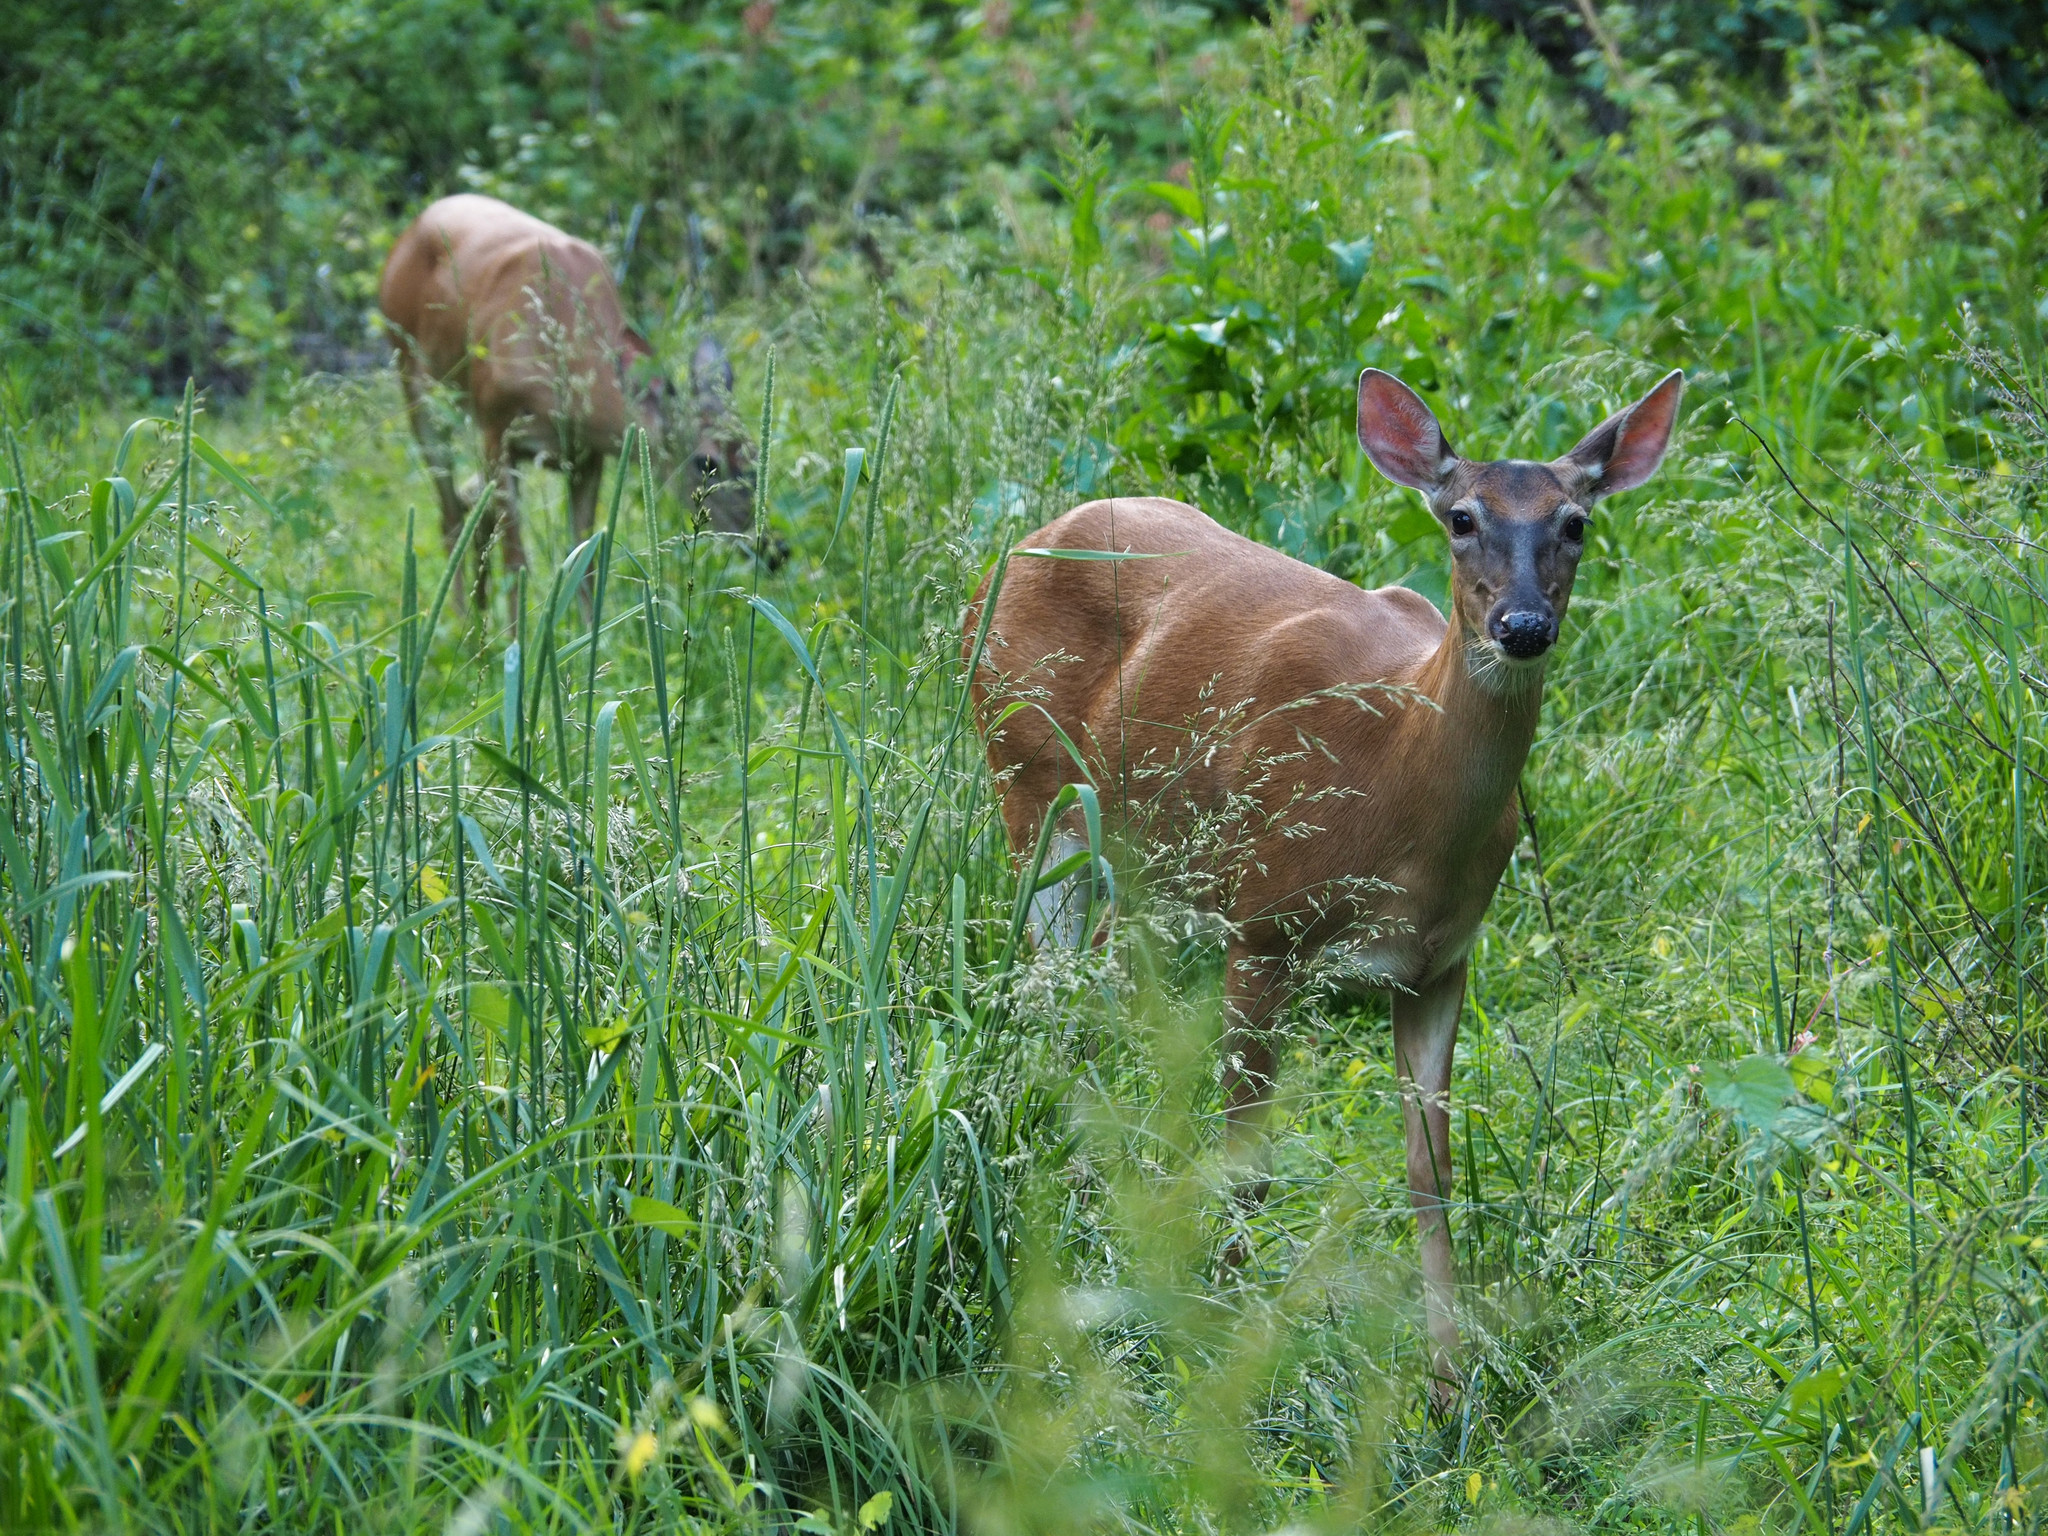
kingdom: Animalia
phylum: Chordata
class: Mammalia
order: Artiodactyla
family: Cervidae
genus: Odocoileus
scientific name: Odocoileus virginianus
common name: White-tailed deer
